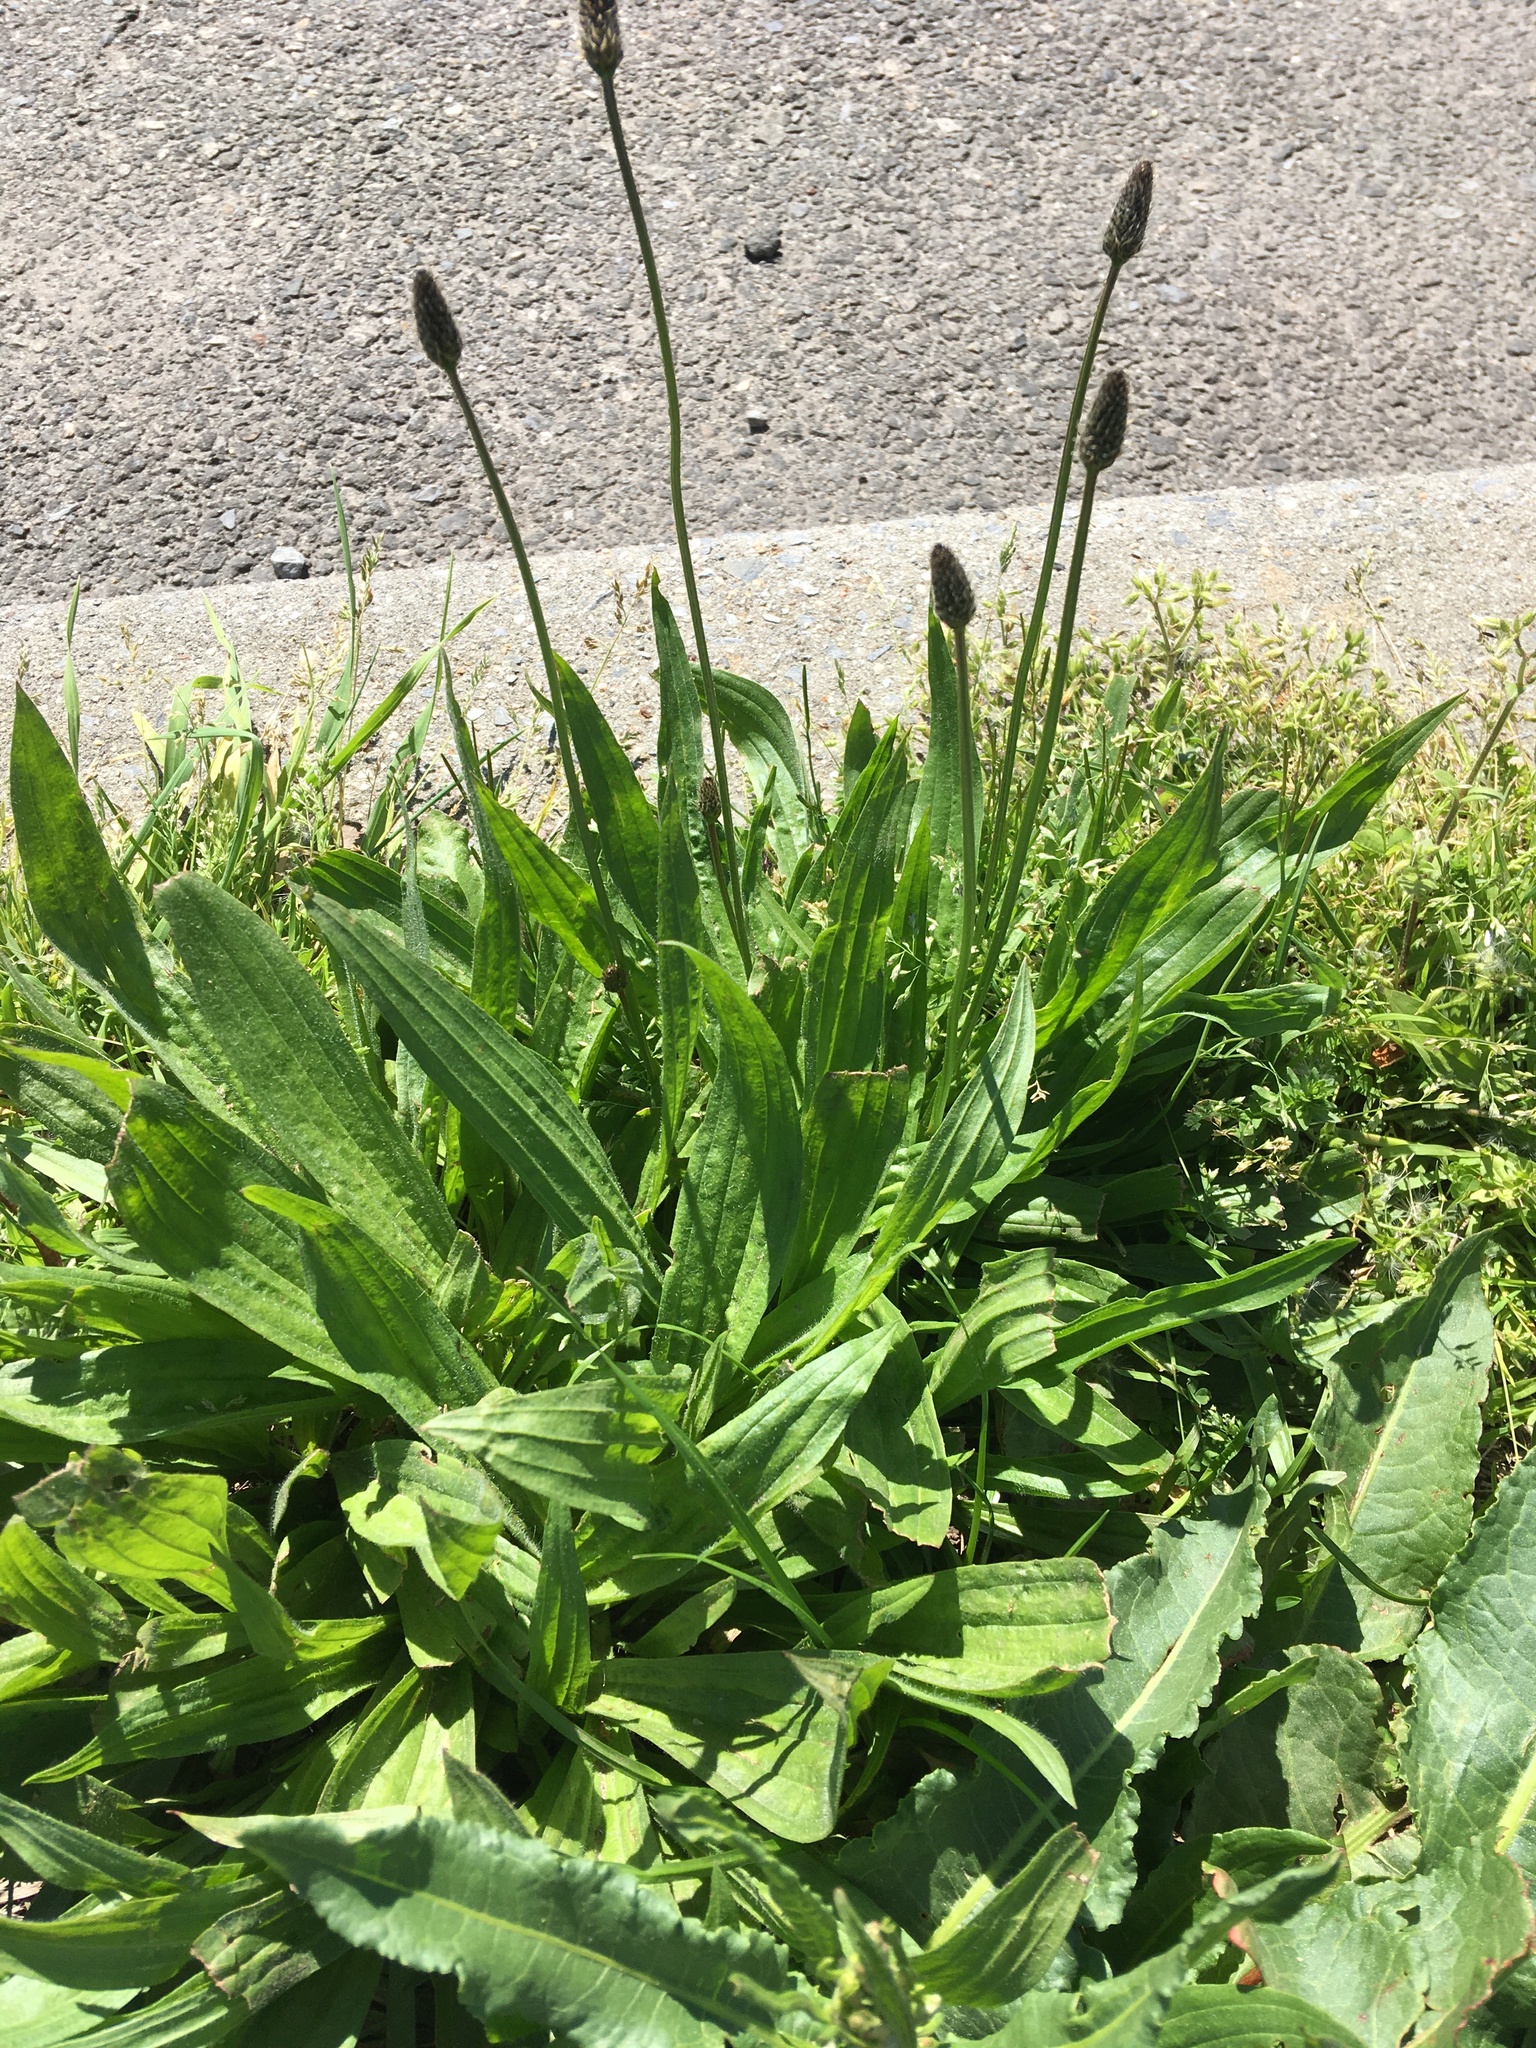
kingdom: Plantae
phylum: Tracheophyta
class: Magnoliopsida
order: Lamiales
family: Plantaginaceae
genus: Plantago
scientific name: Plantago lanceolata
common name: Ribwort plantain
